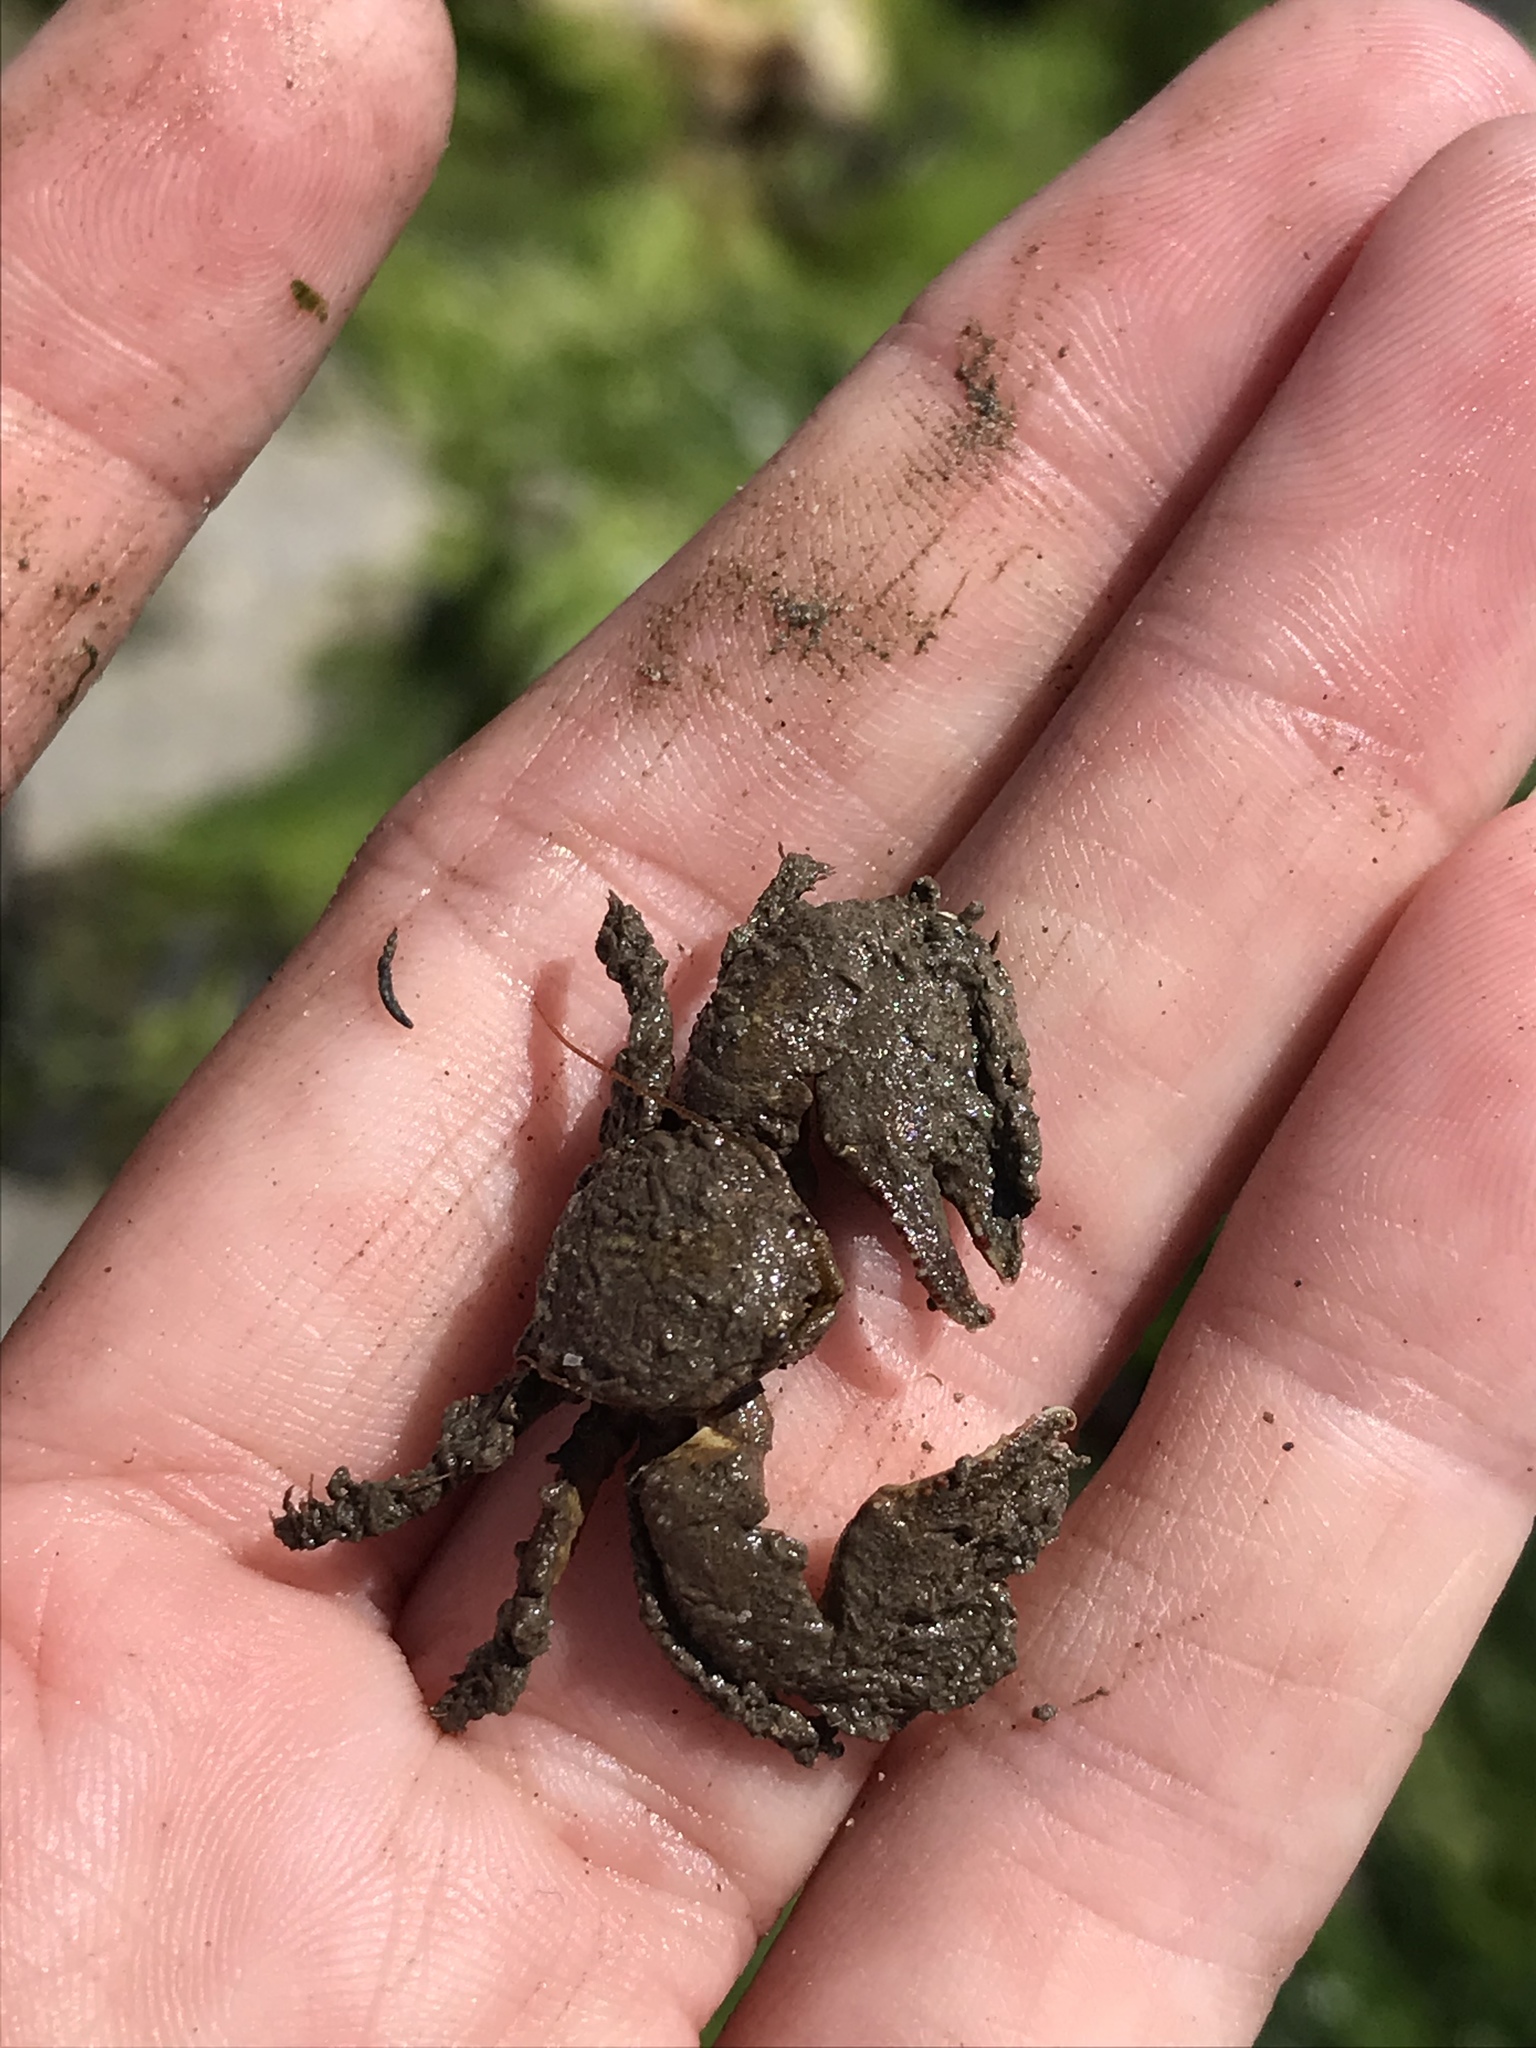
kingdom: Animalia
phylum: Arthropoda
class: Malacostraca
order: Decapoda
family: Porcellanidae
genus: Porcellana
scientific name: Porcellana platycheles
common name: Porcelain crab
